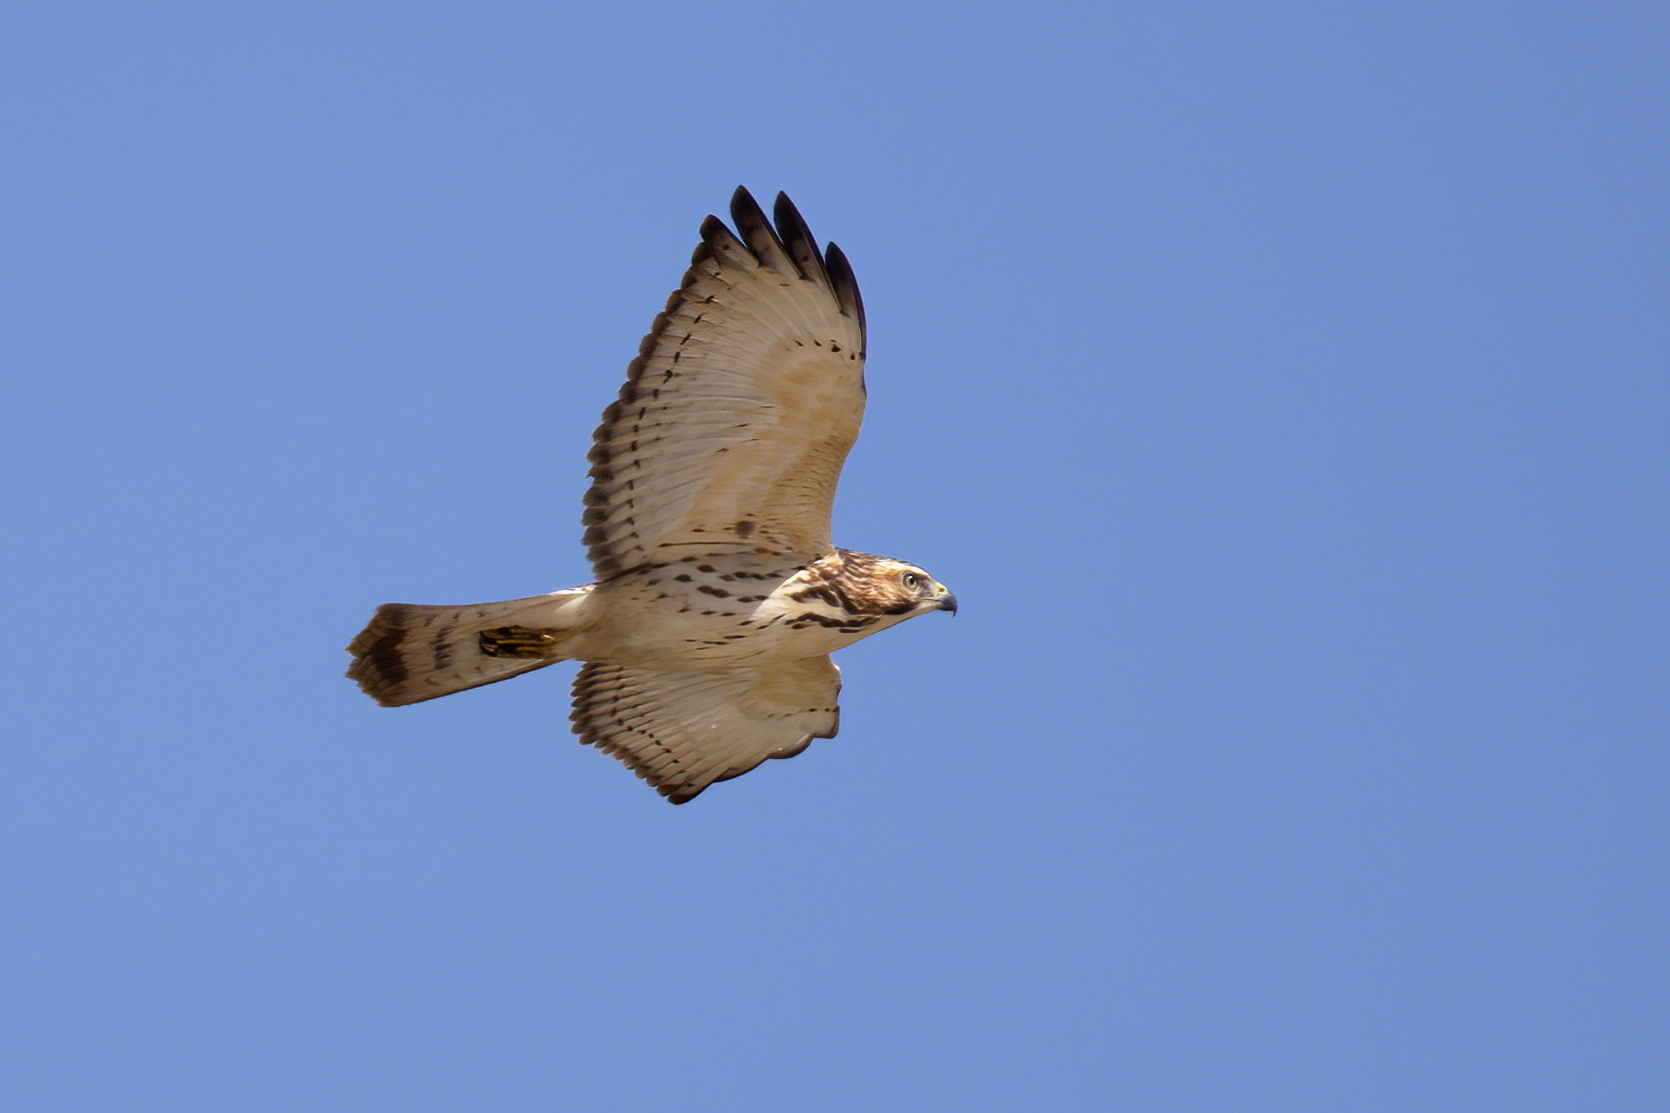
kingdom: Animalia
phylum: Chordata
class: Aves
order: Accipitriformes
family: Accipitridae
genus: Buteo
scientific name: Buteo platypterus
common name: Broad-winged hawk
